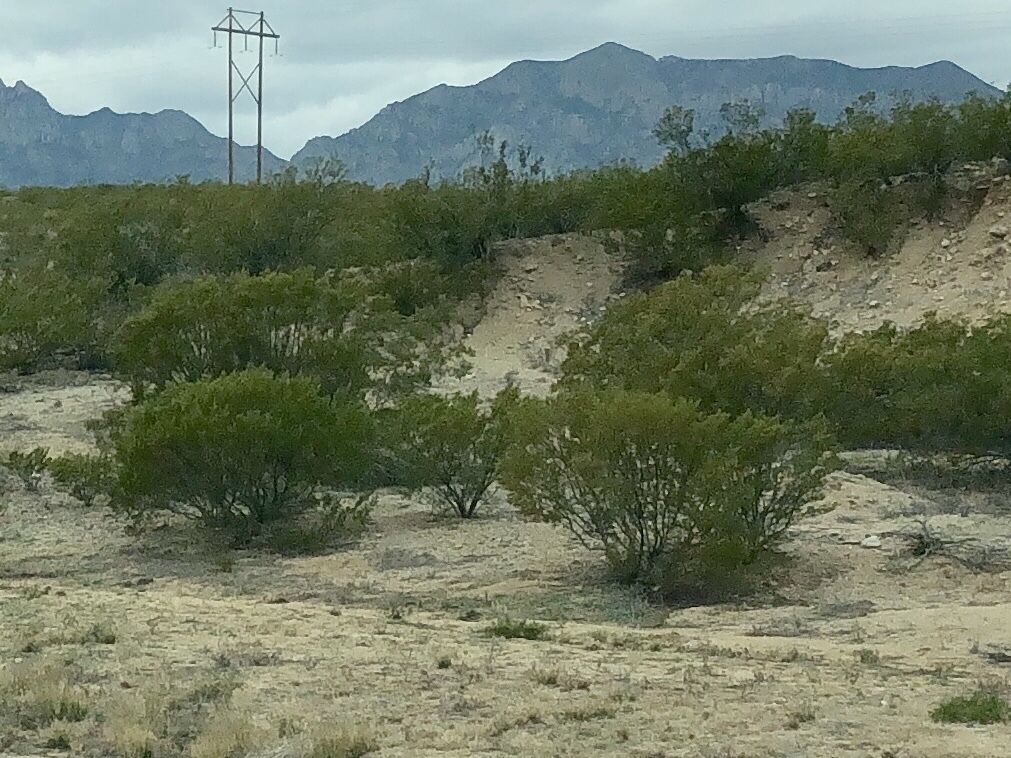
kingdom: Plantae
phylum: Tracheophyta
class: Magnoliopsida
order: Zygophyllales
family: Zygophyllaceae
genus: Larrea
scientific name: Larrea tridentata
